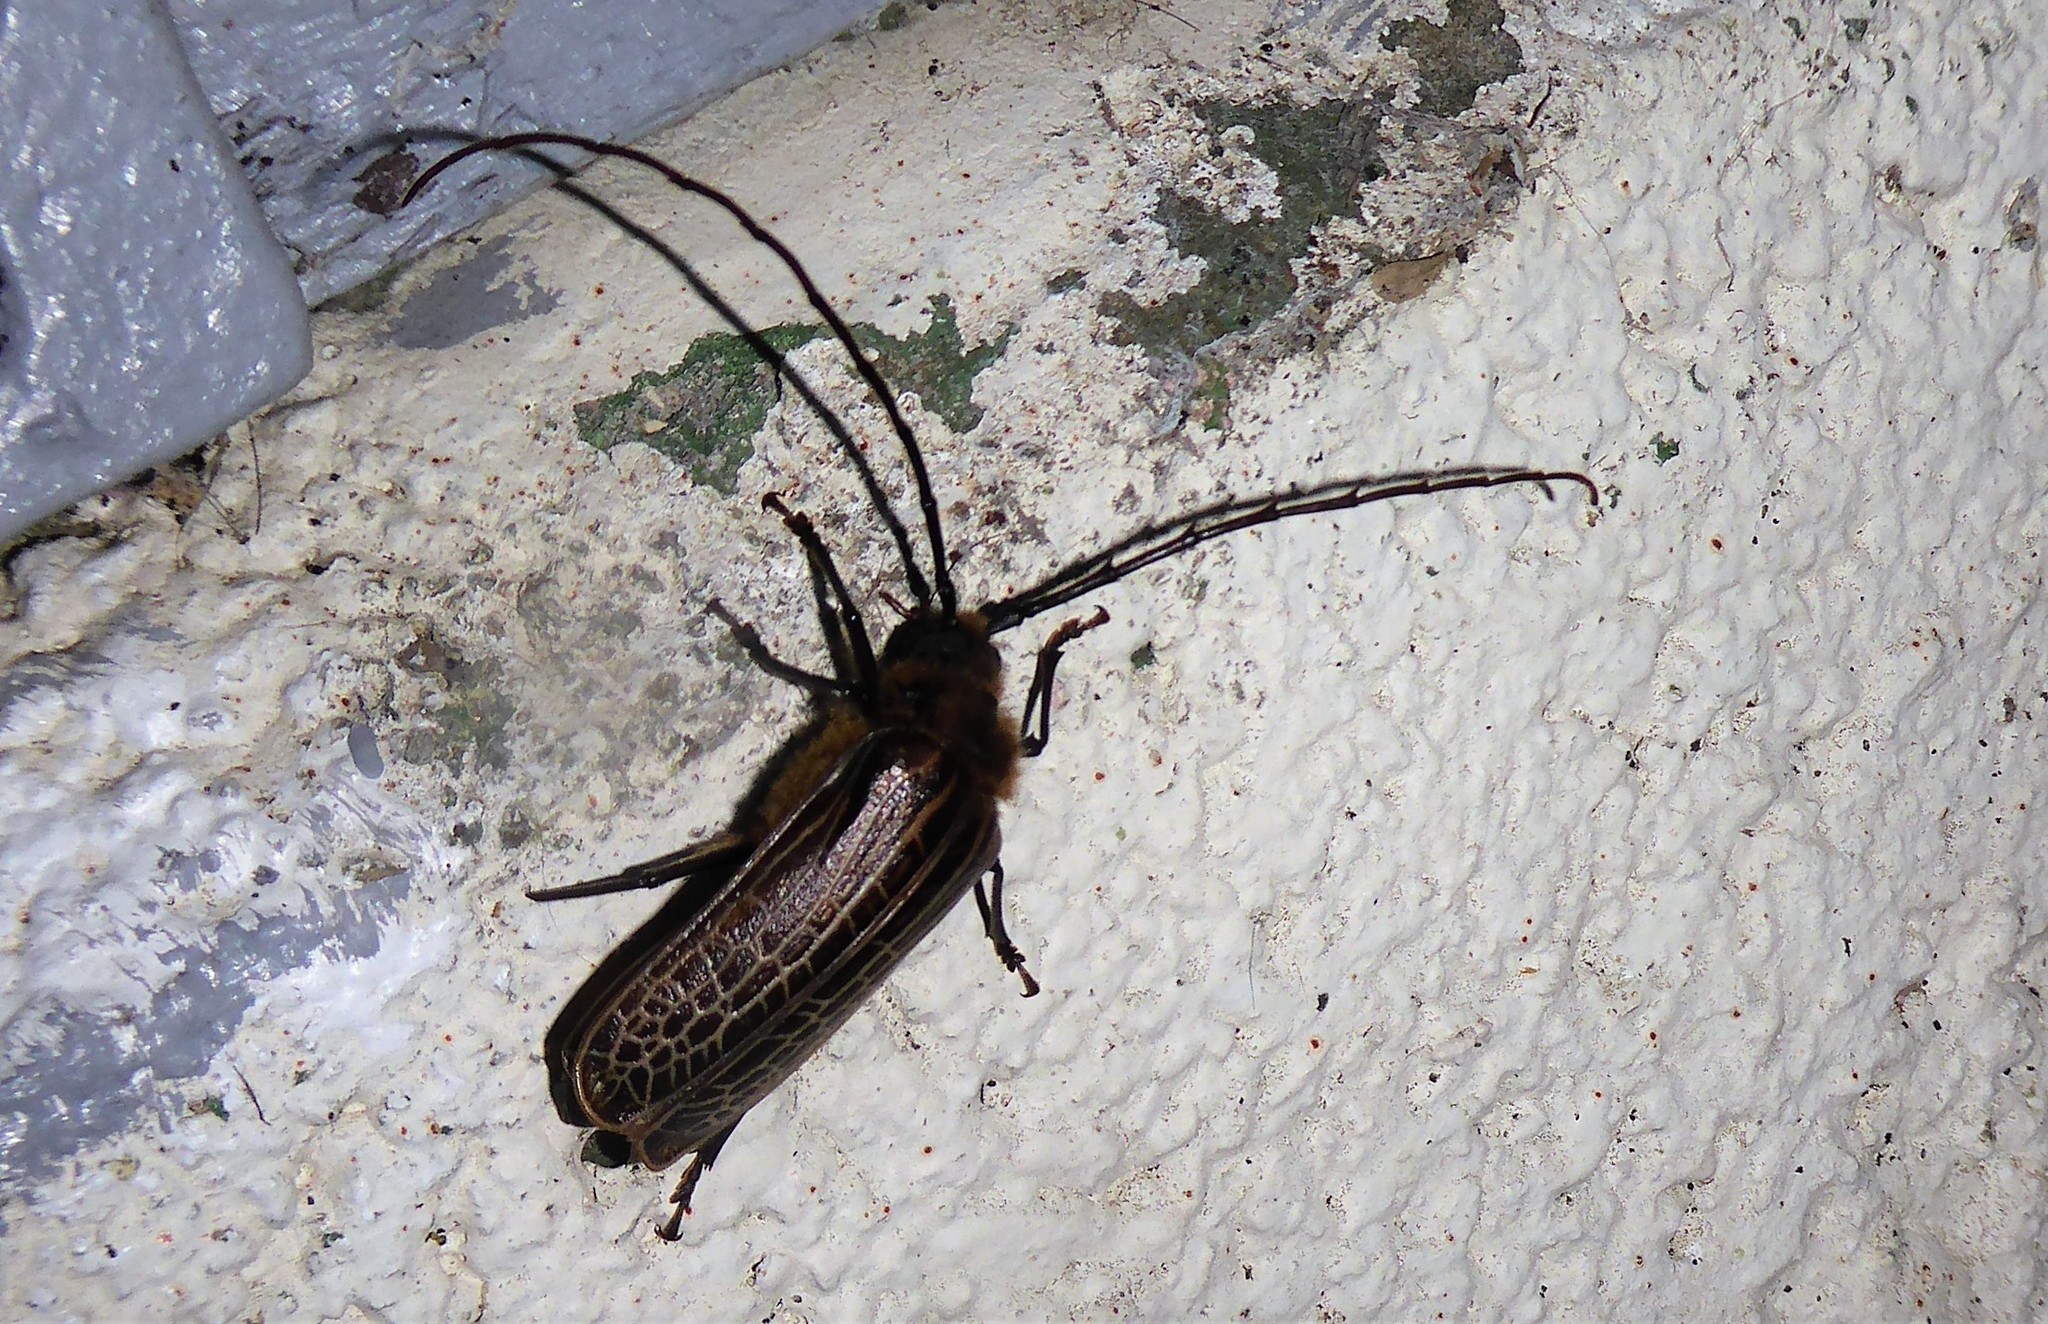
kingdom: Animalia
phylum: Arthropoda
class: Insecta
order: Coleoptera
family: Cerambycidae
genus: Prionoplus
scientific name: Prionoplus reticularis
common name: Huhu beetle
